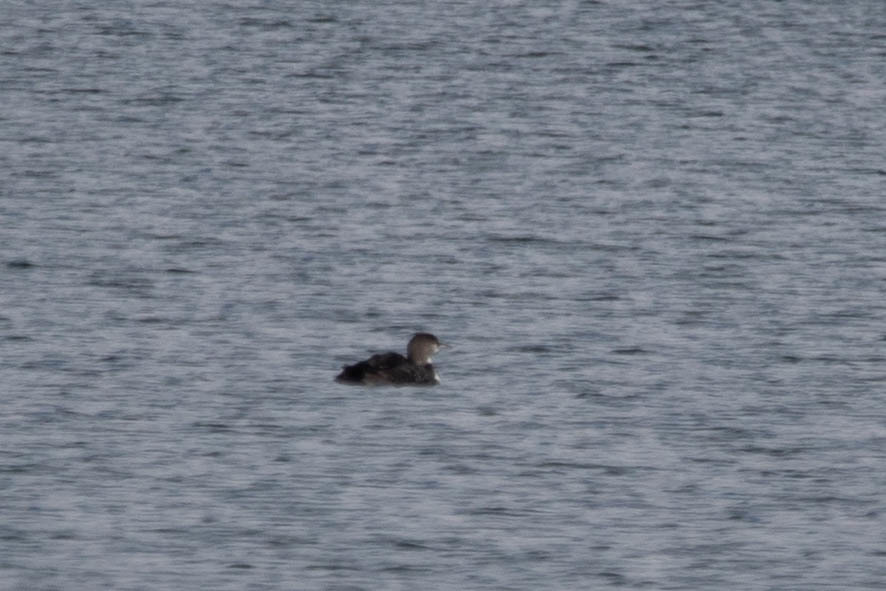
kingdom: Animalia
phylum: Chordata
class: Aves
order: Gaviiformes
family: Gaviidae
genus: Gavia
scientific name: Gavia immer
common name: Common loon
